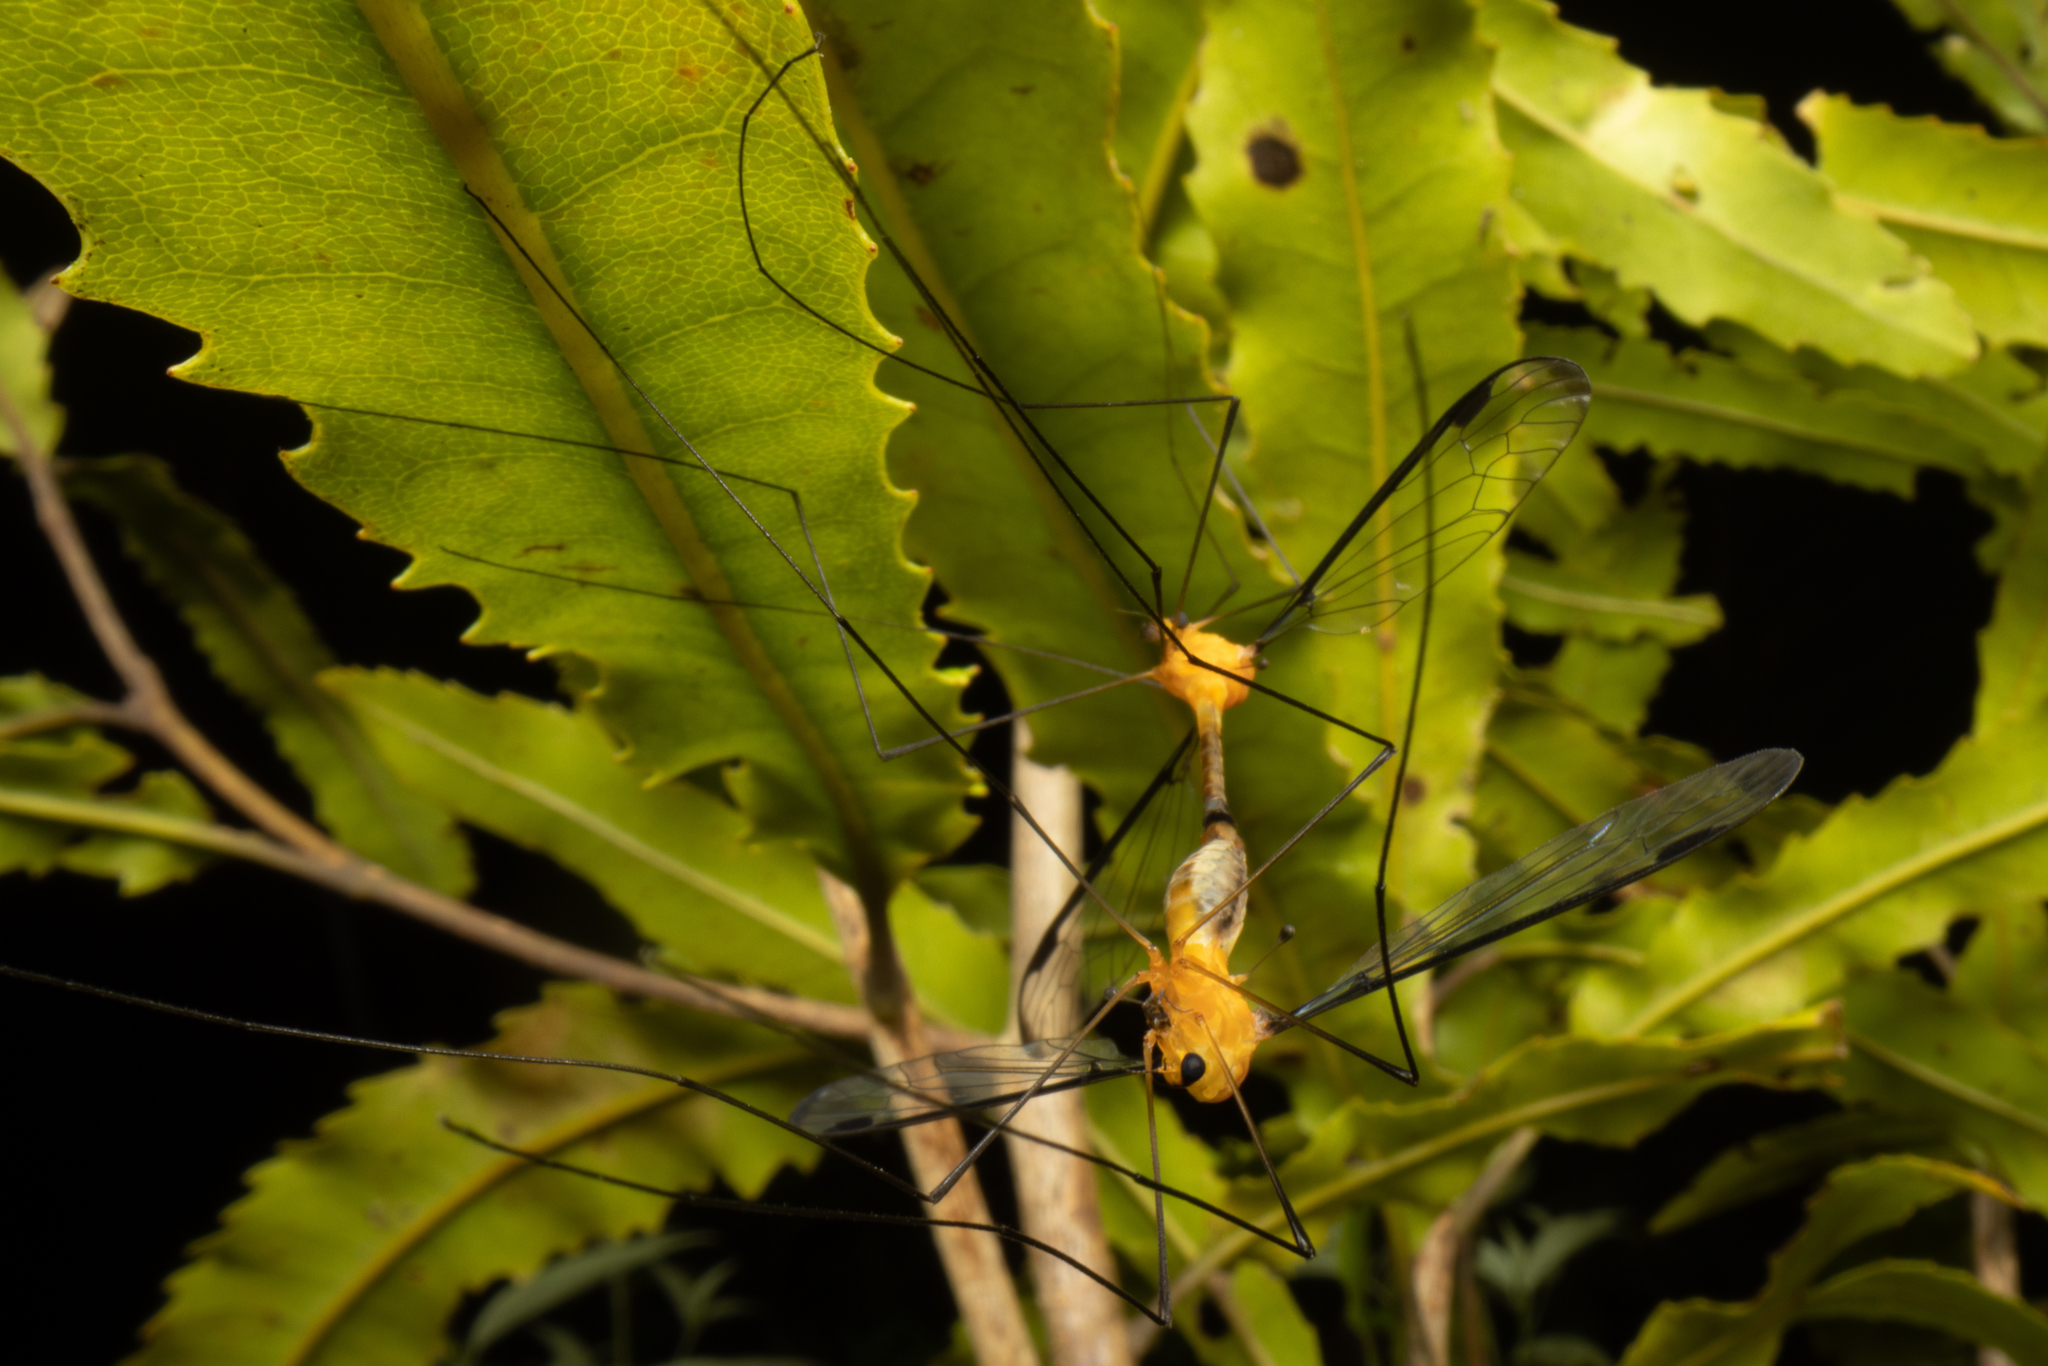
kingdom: Animalia
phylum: Arthropoda
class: Insecta
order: Diptera
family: Tipulidae
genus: Aurotipula
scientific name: Aurotipula
